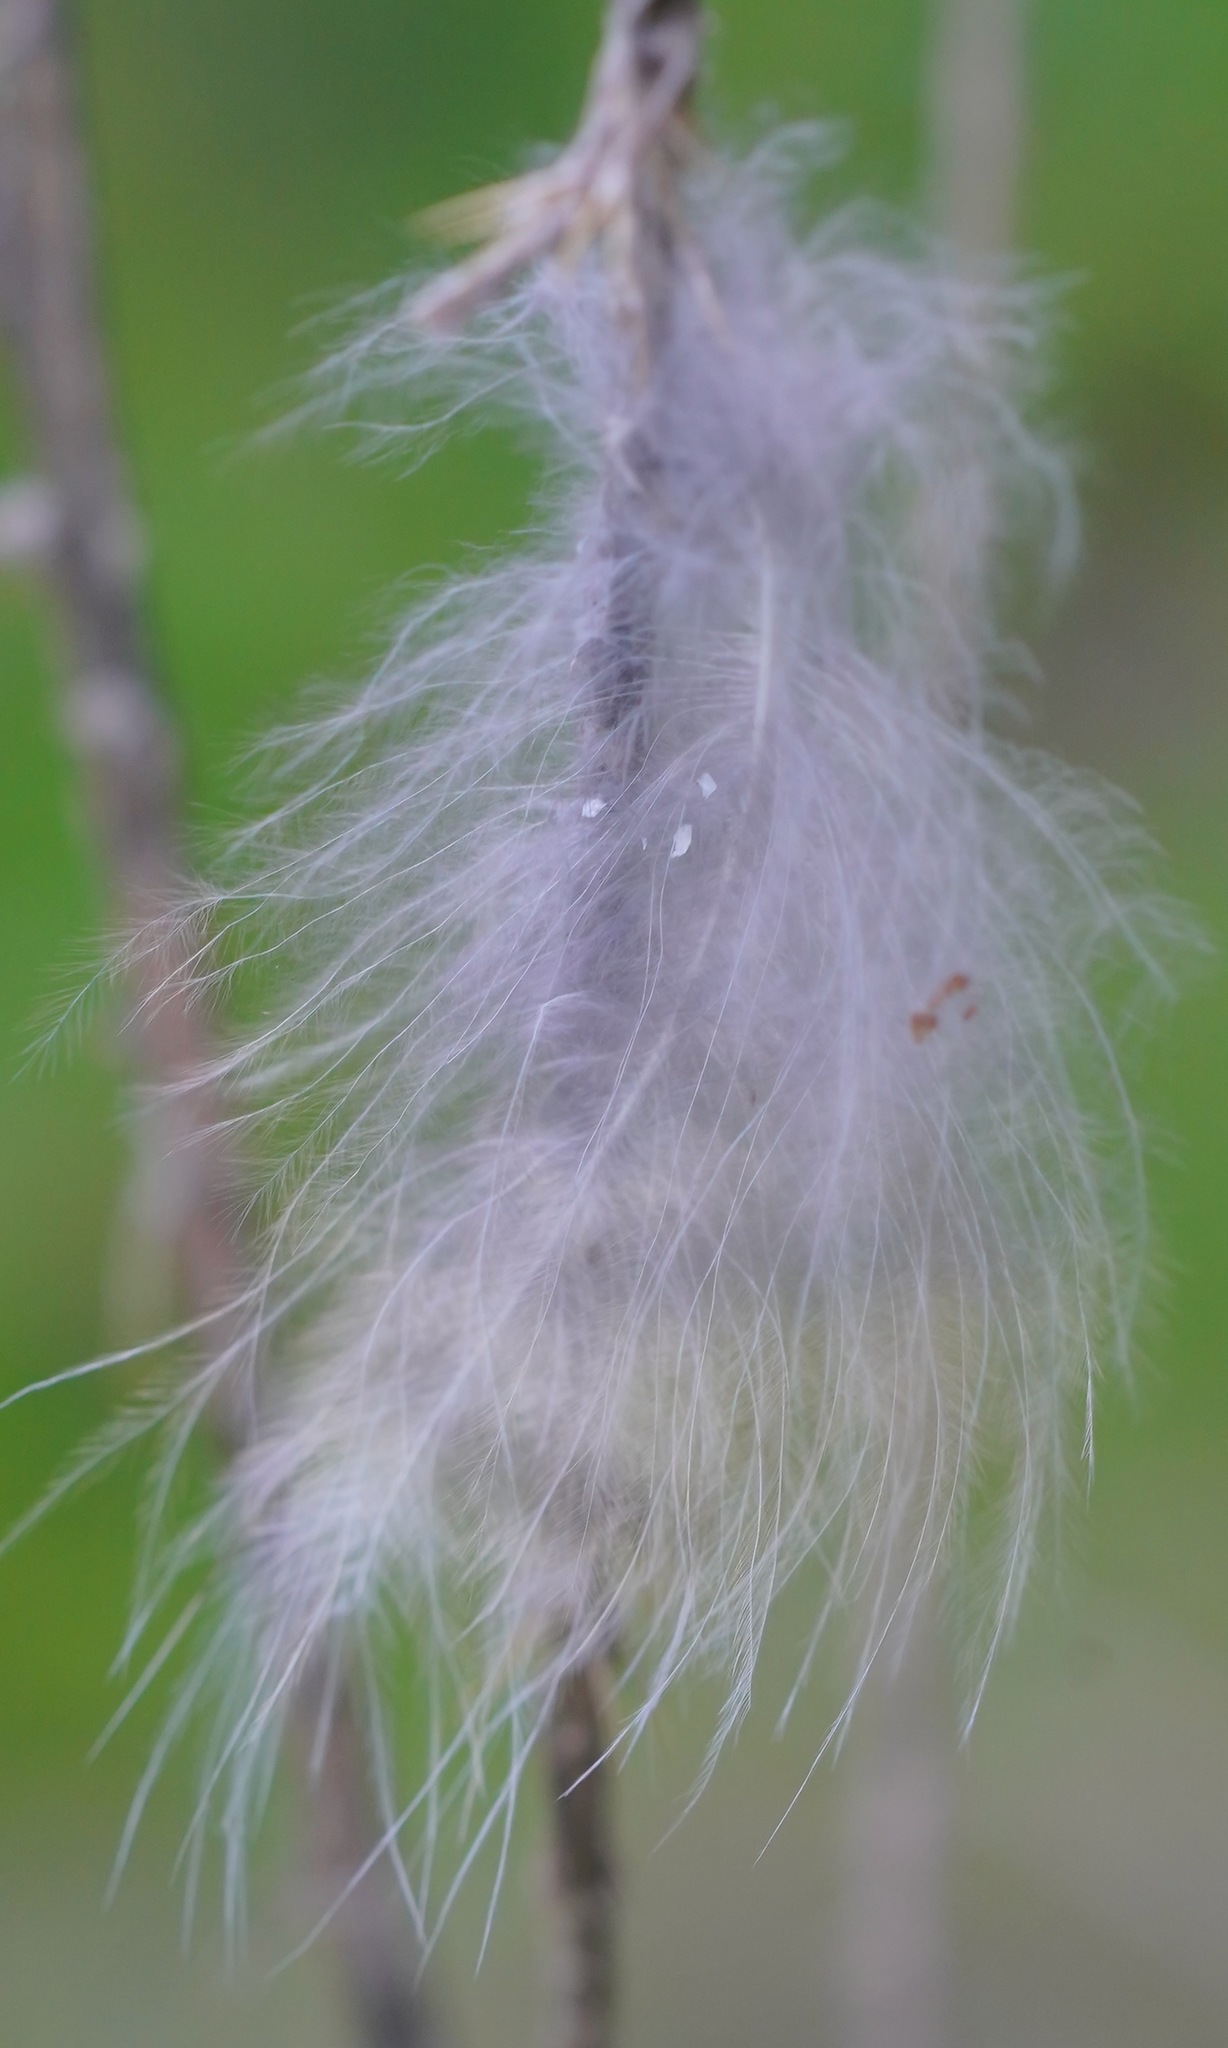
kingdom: Animalia
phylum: Chordata
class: Aves
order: Strigiformes
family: Strigidae
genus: Bubo
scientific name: Bubo virginianus
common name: Great horned owl
